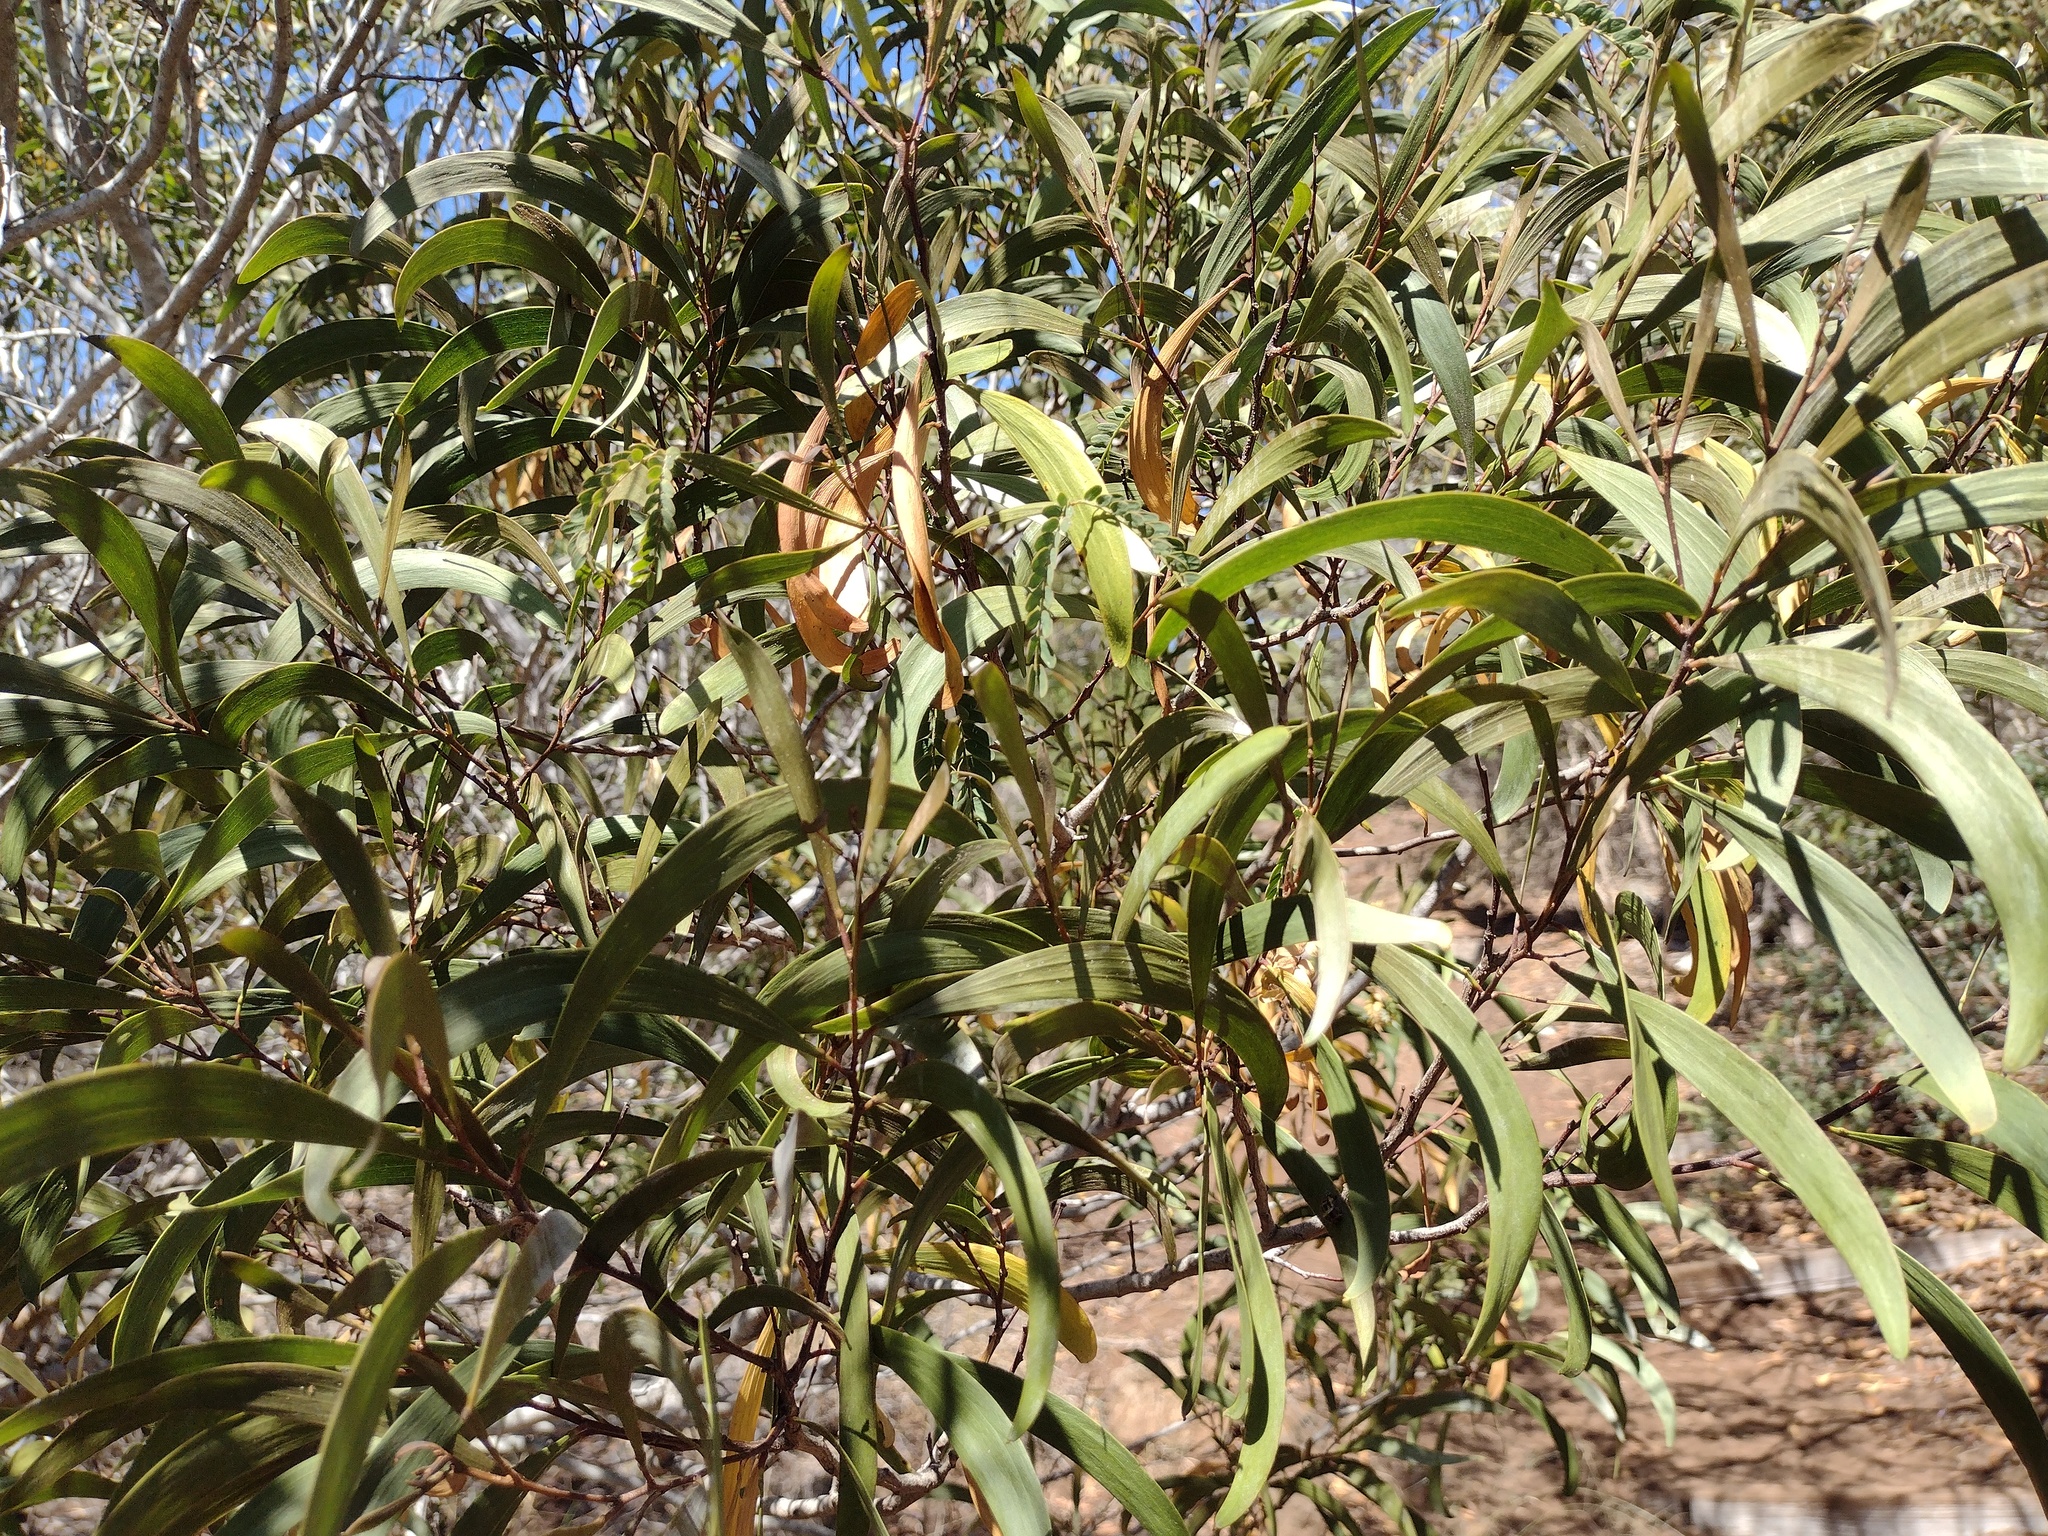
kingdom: Plantae
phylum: Tracheophyta
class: Magnoliopsida
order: Fabales
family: Fabaceae
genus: Acacia
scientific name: Acacia koa
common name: Gray koa
